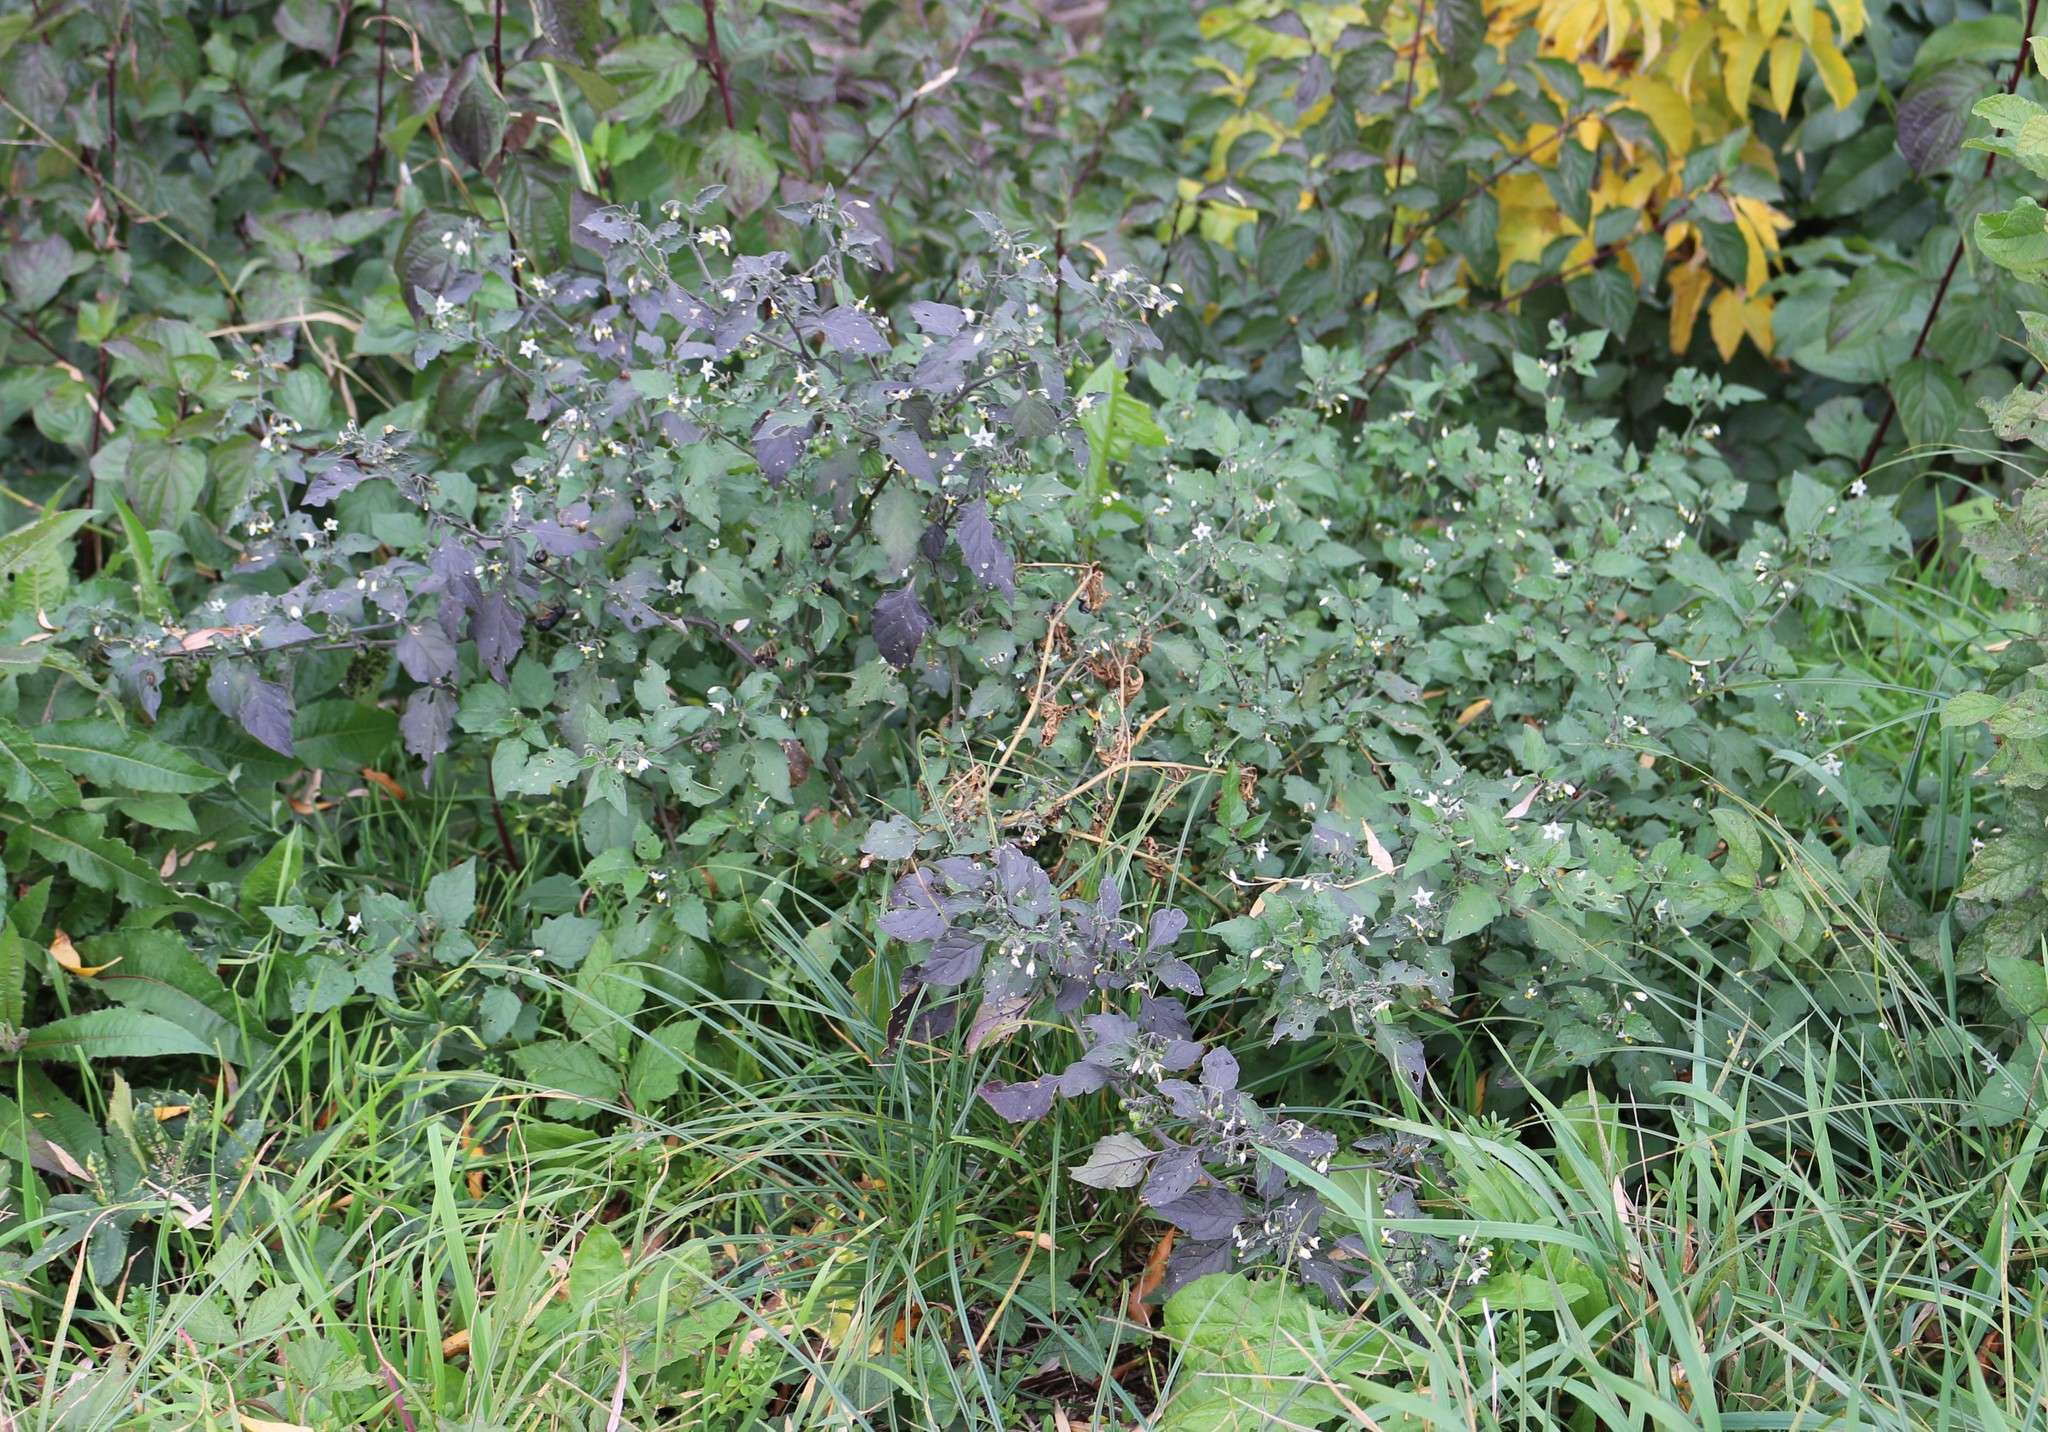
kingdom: Plantae
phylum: Tracheophyta
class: Magnoliopsida
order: Solanales
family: Solanaceae
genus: Solanum
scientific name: Solanum nigrum
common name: Black nightshade
